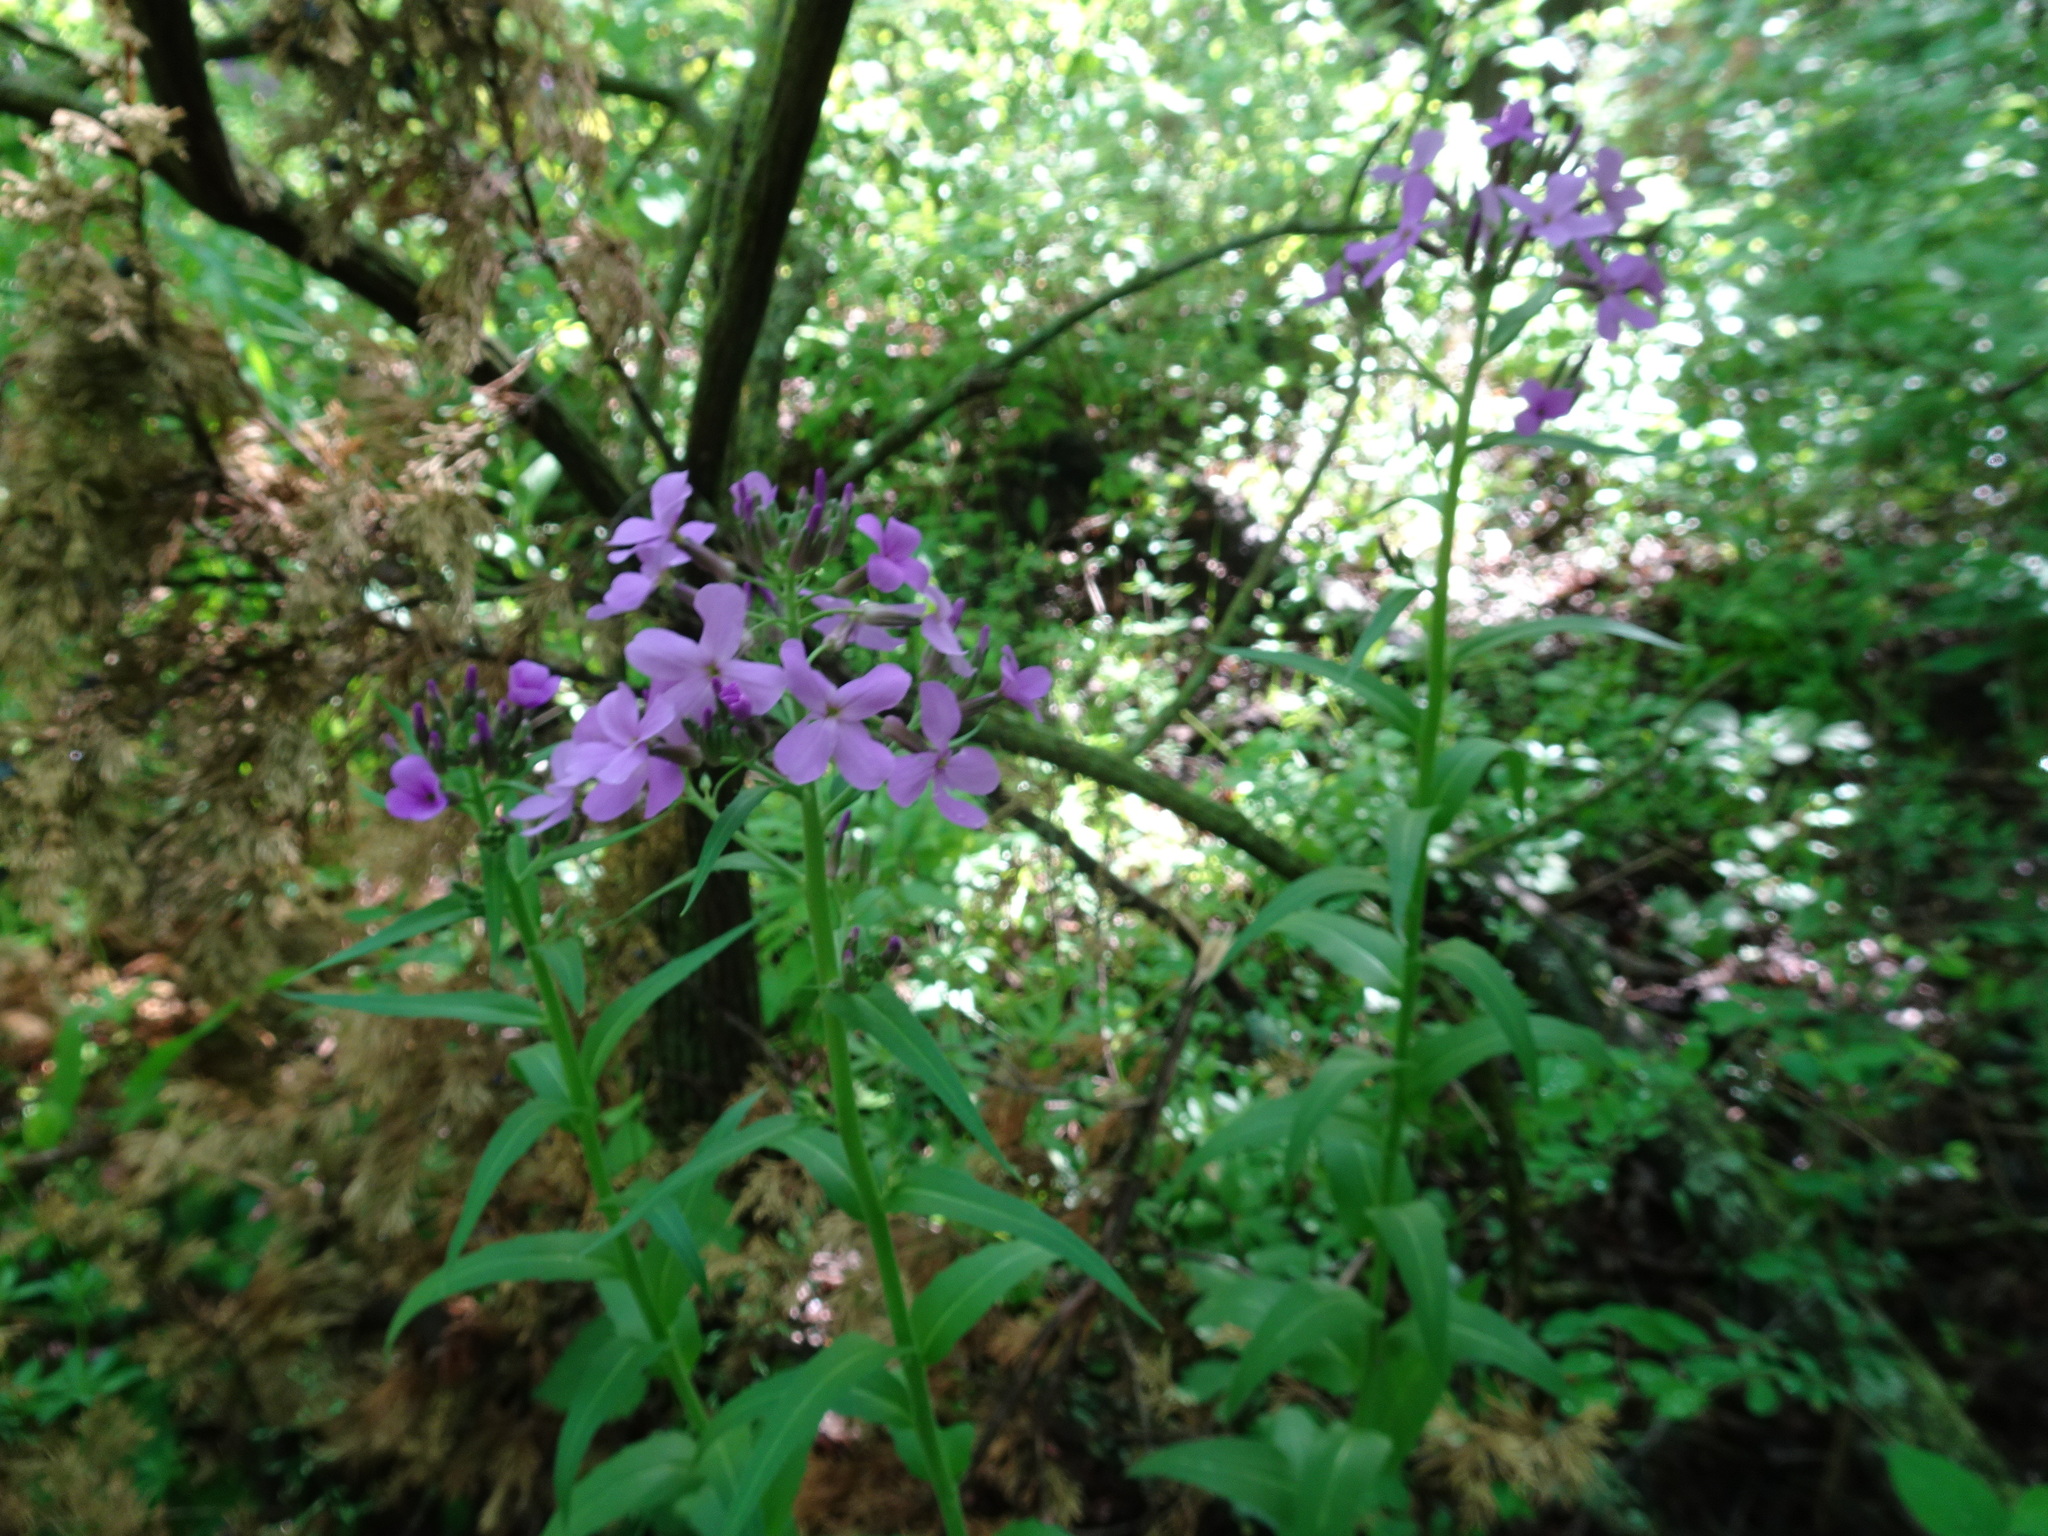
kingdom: Plantae
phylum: Tracheophyta
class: Magnoliopsida
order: Brassicales
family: Brassicaceae
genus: Hesperis
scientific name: Hesperis matronalis
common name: Dame's-violet
